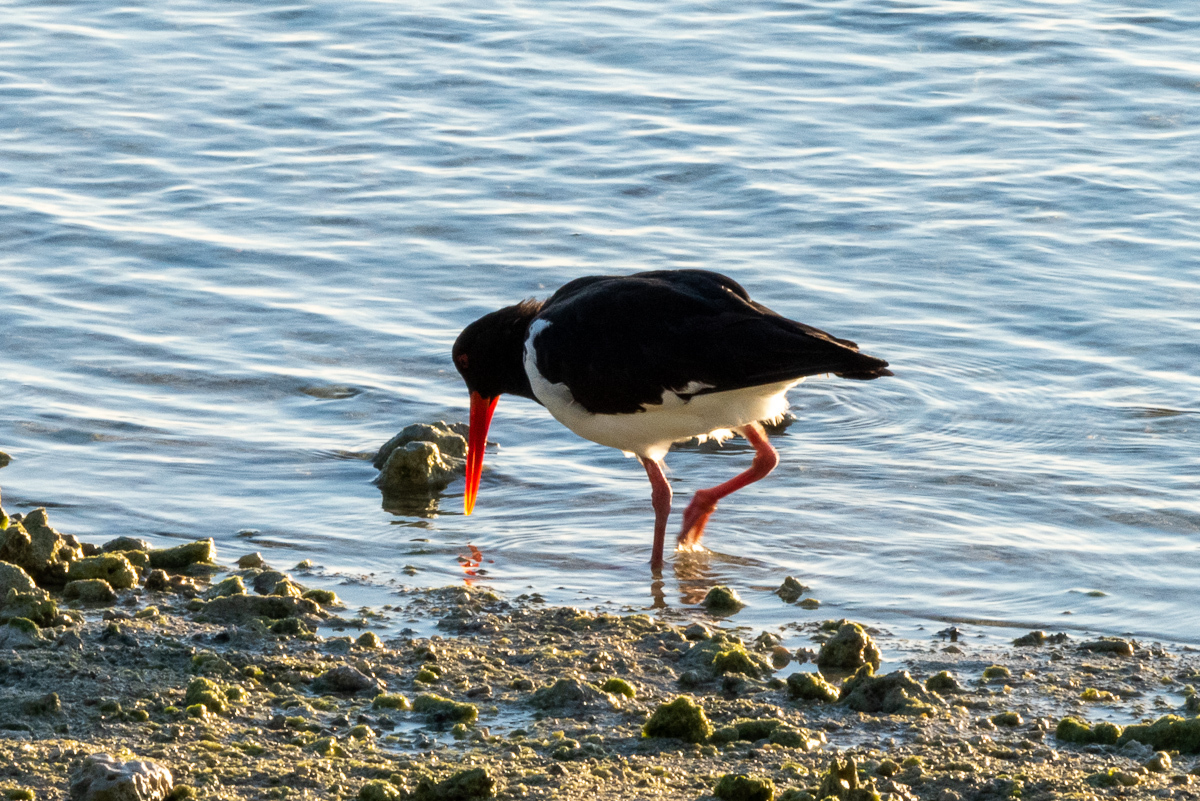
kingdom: Animalia
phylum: Chordata
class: Aves
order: Charadriiformes
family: Haematopodidae
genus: Haematopus
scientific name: Haematopus longirostris
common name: Pied oystercatcher
